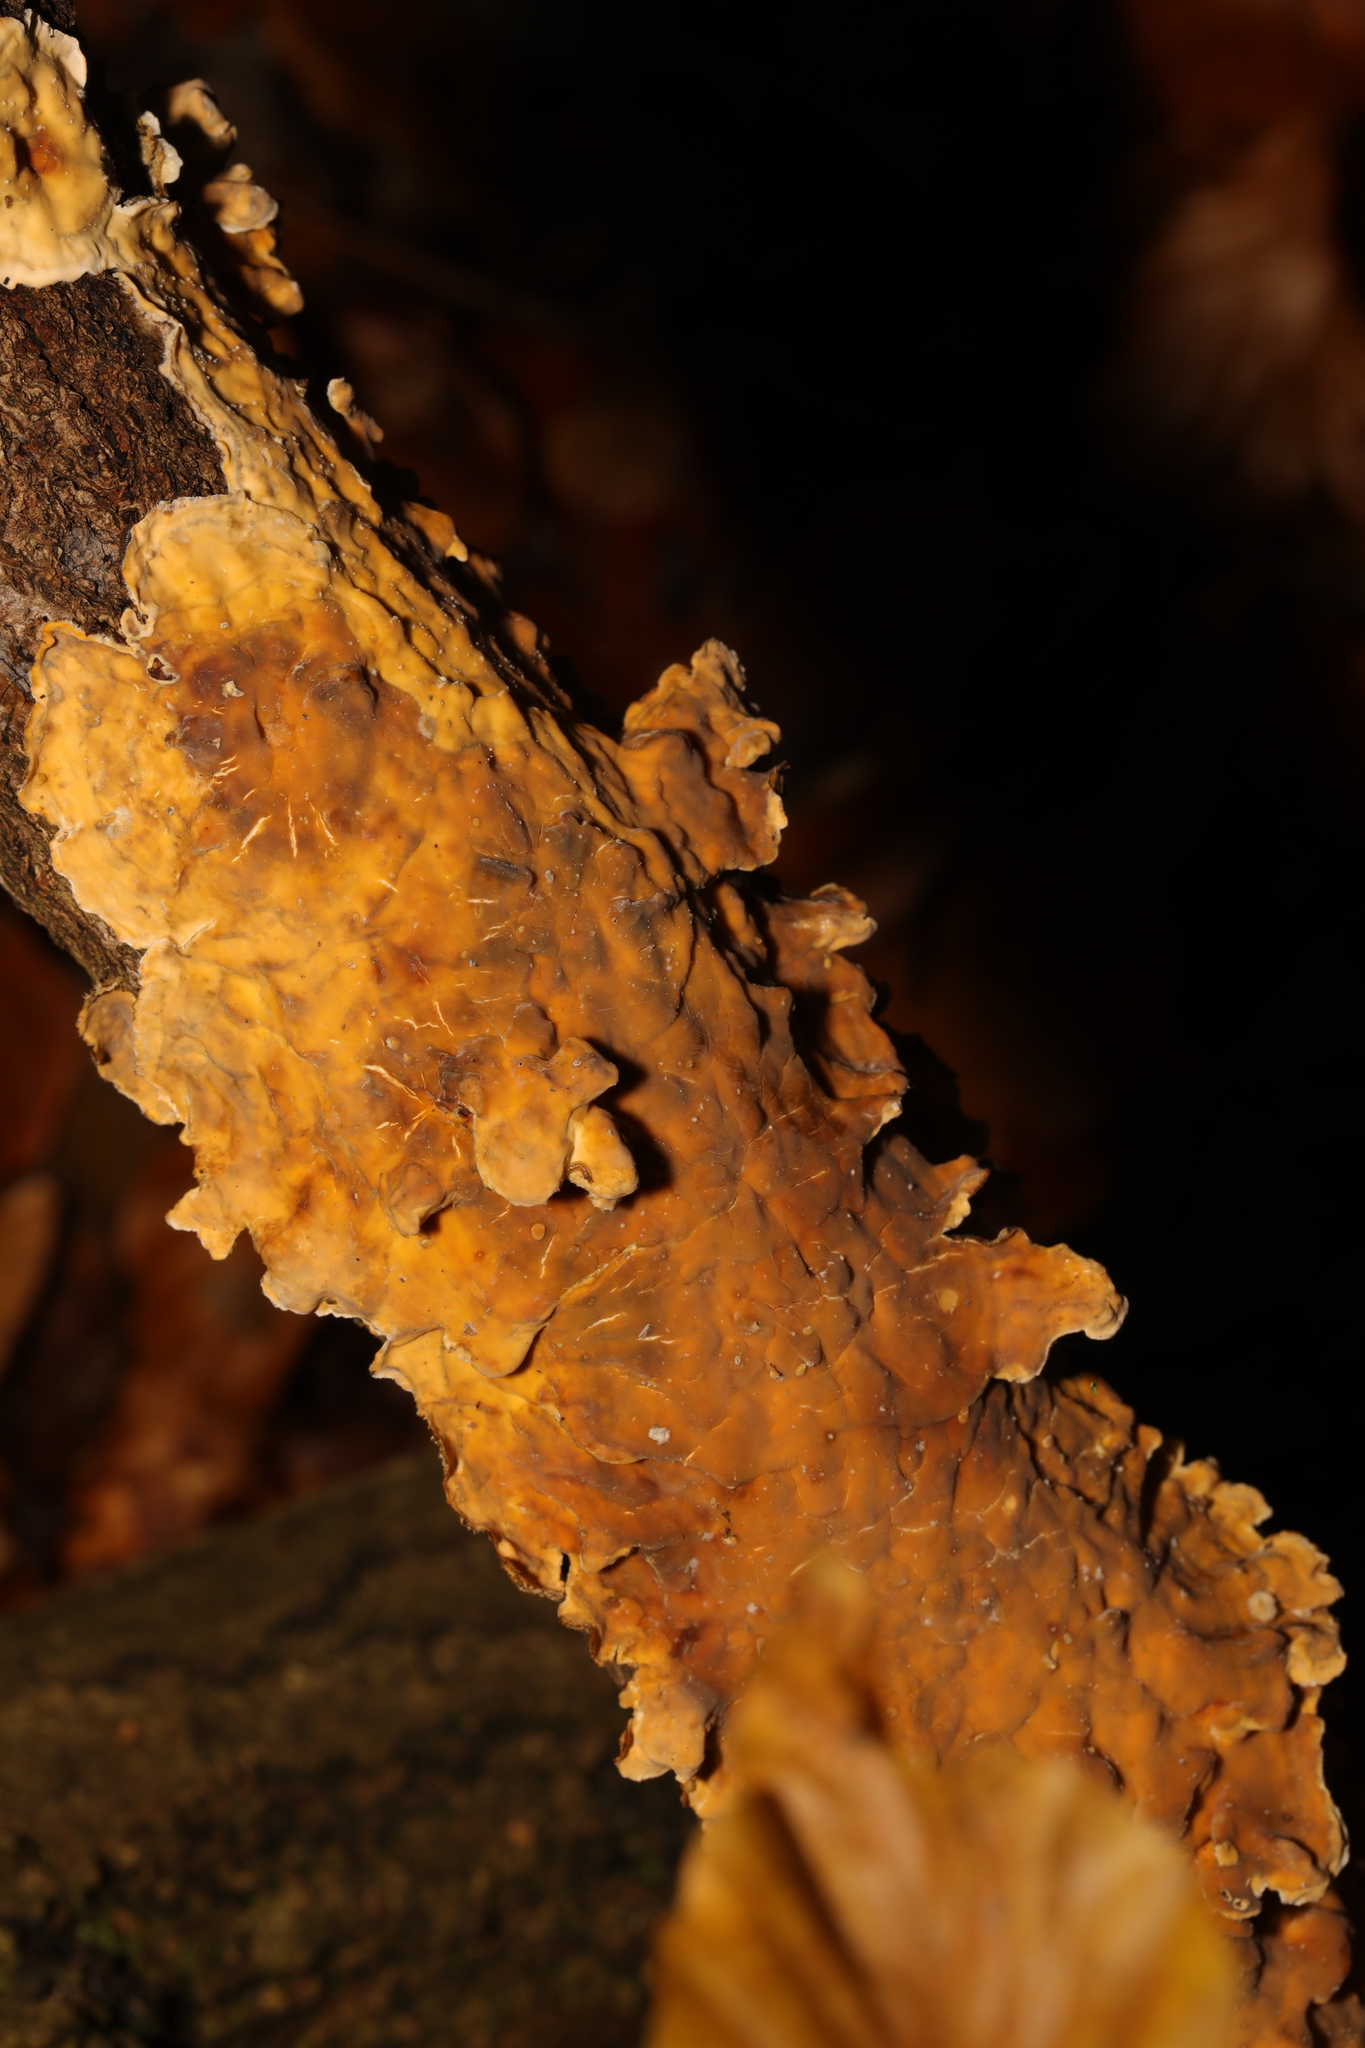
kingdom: Fungi
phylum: Basidiomycota
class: Agaricomycetes
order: Russulales
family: Stereaceae
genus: Stereum
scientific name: Stereum hirsutum
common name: Hairy curtain crust
